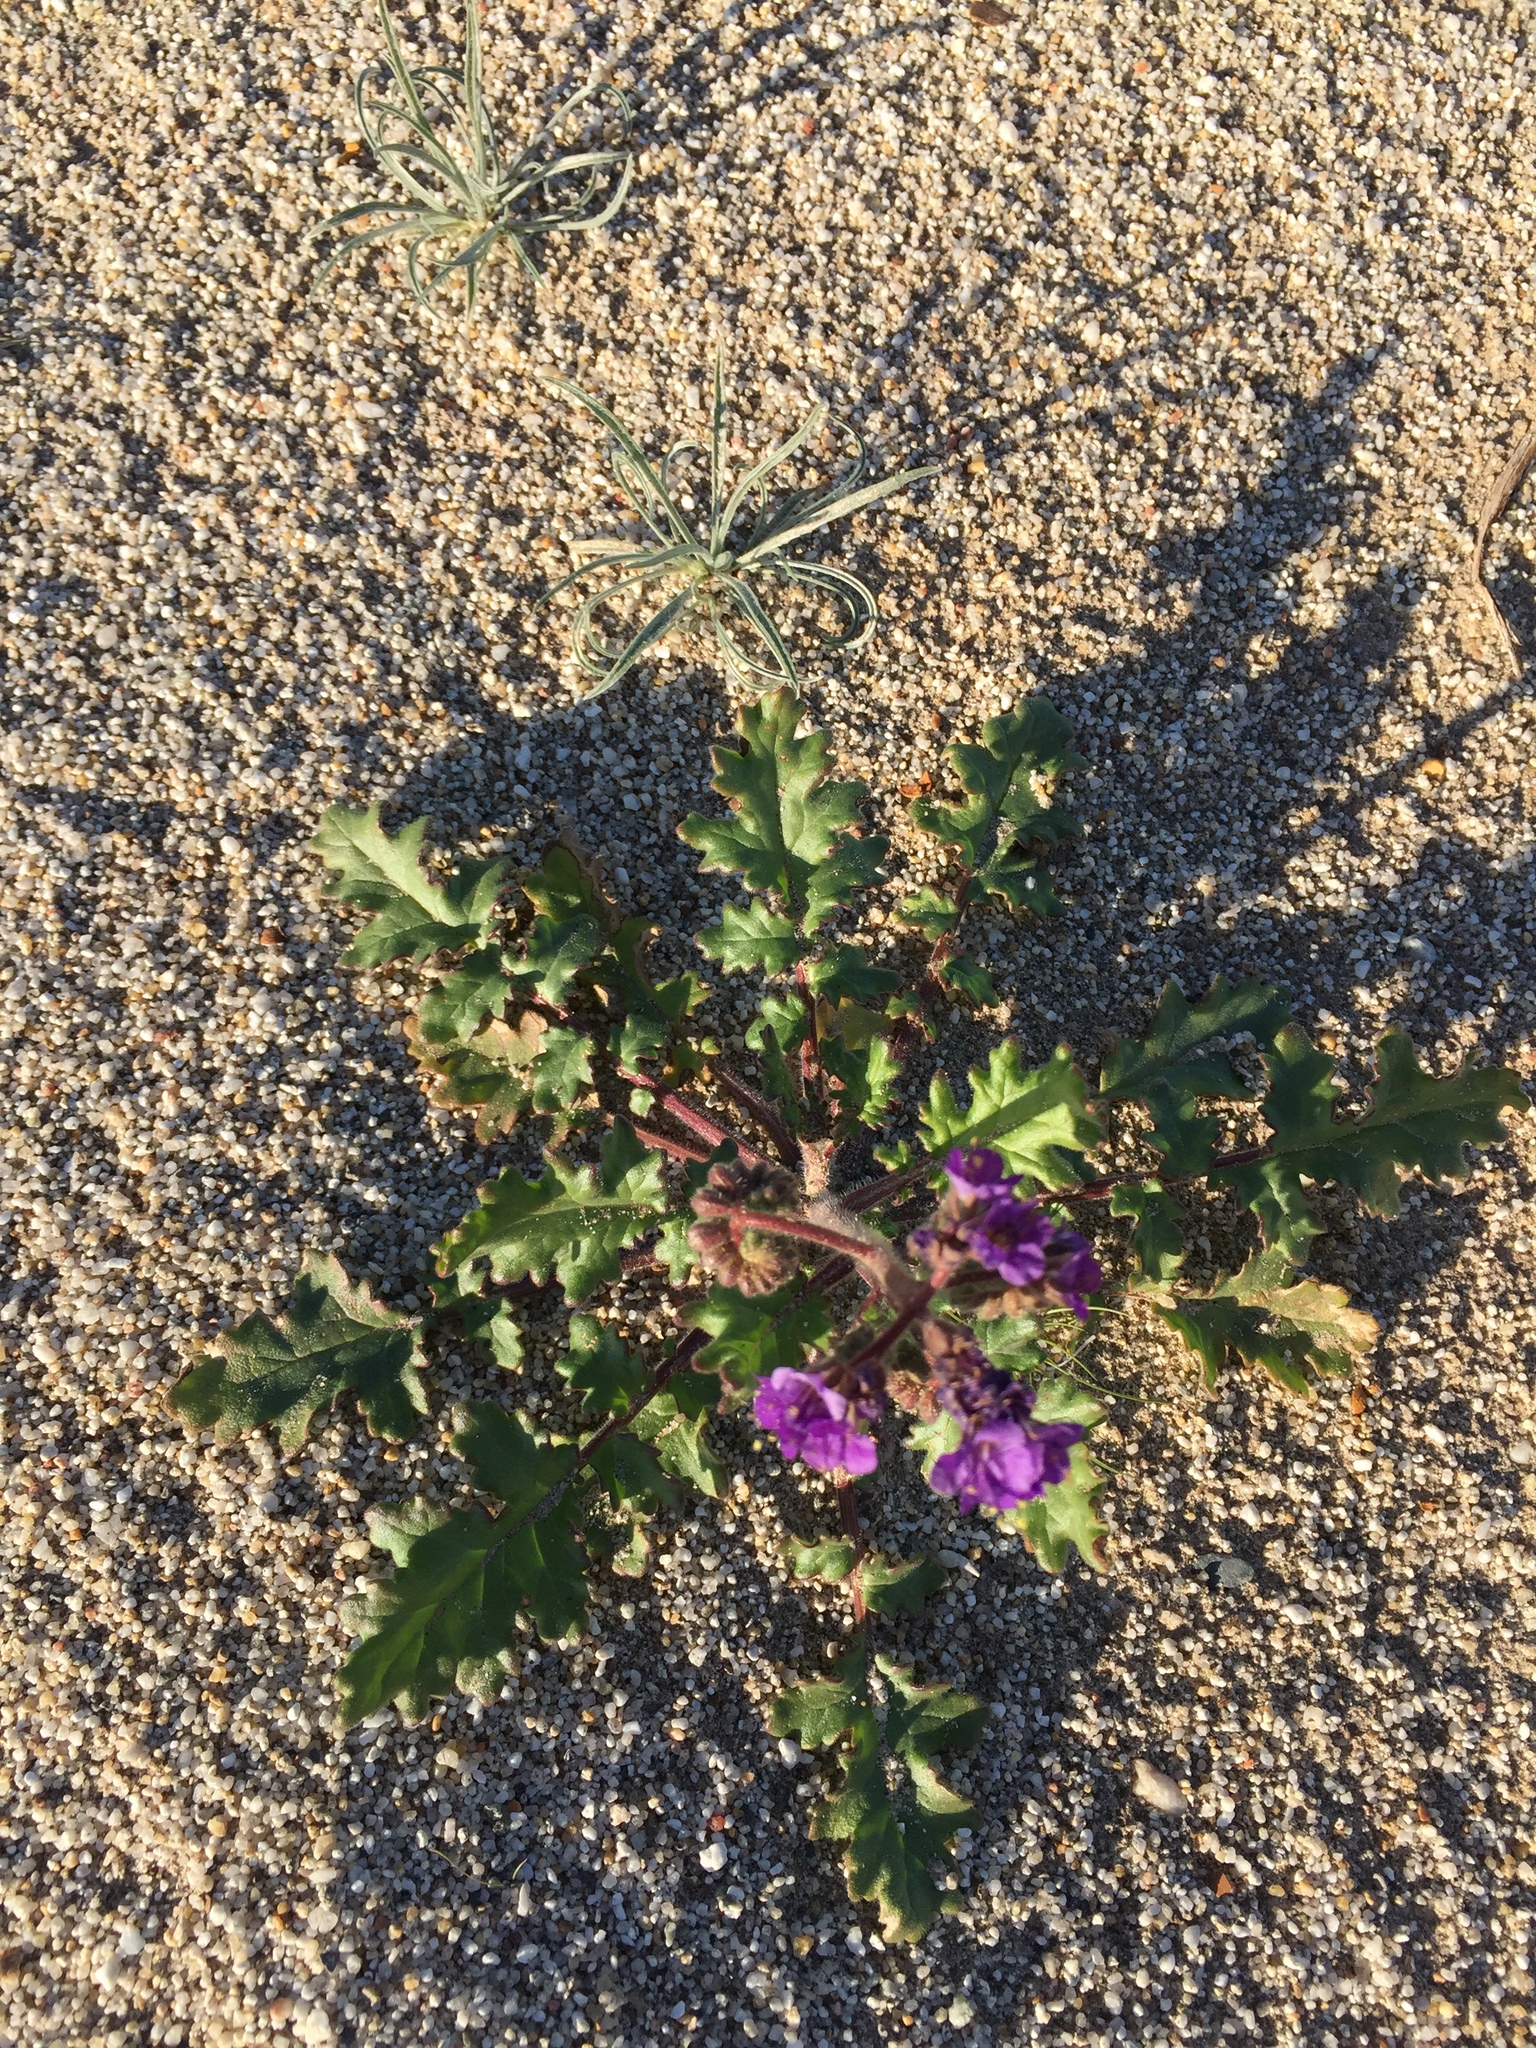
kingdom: Plantae
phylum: Tracheophyta
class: Magnoliopsida
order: Boraginales
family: Hydrophyllaceae
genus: Phacelia
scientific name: Phacelia crenulata
